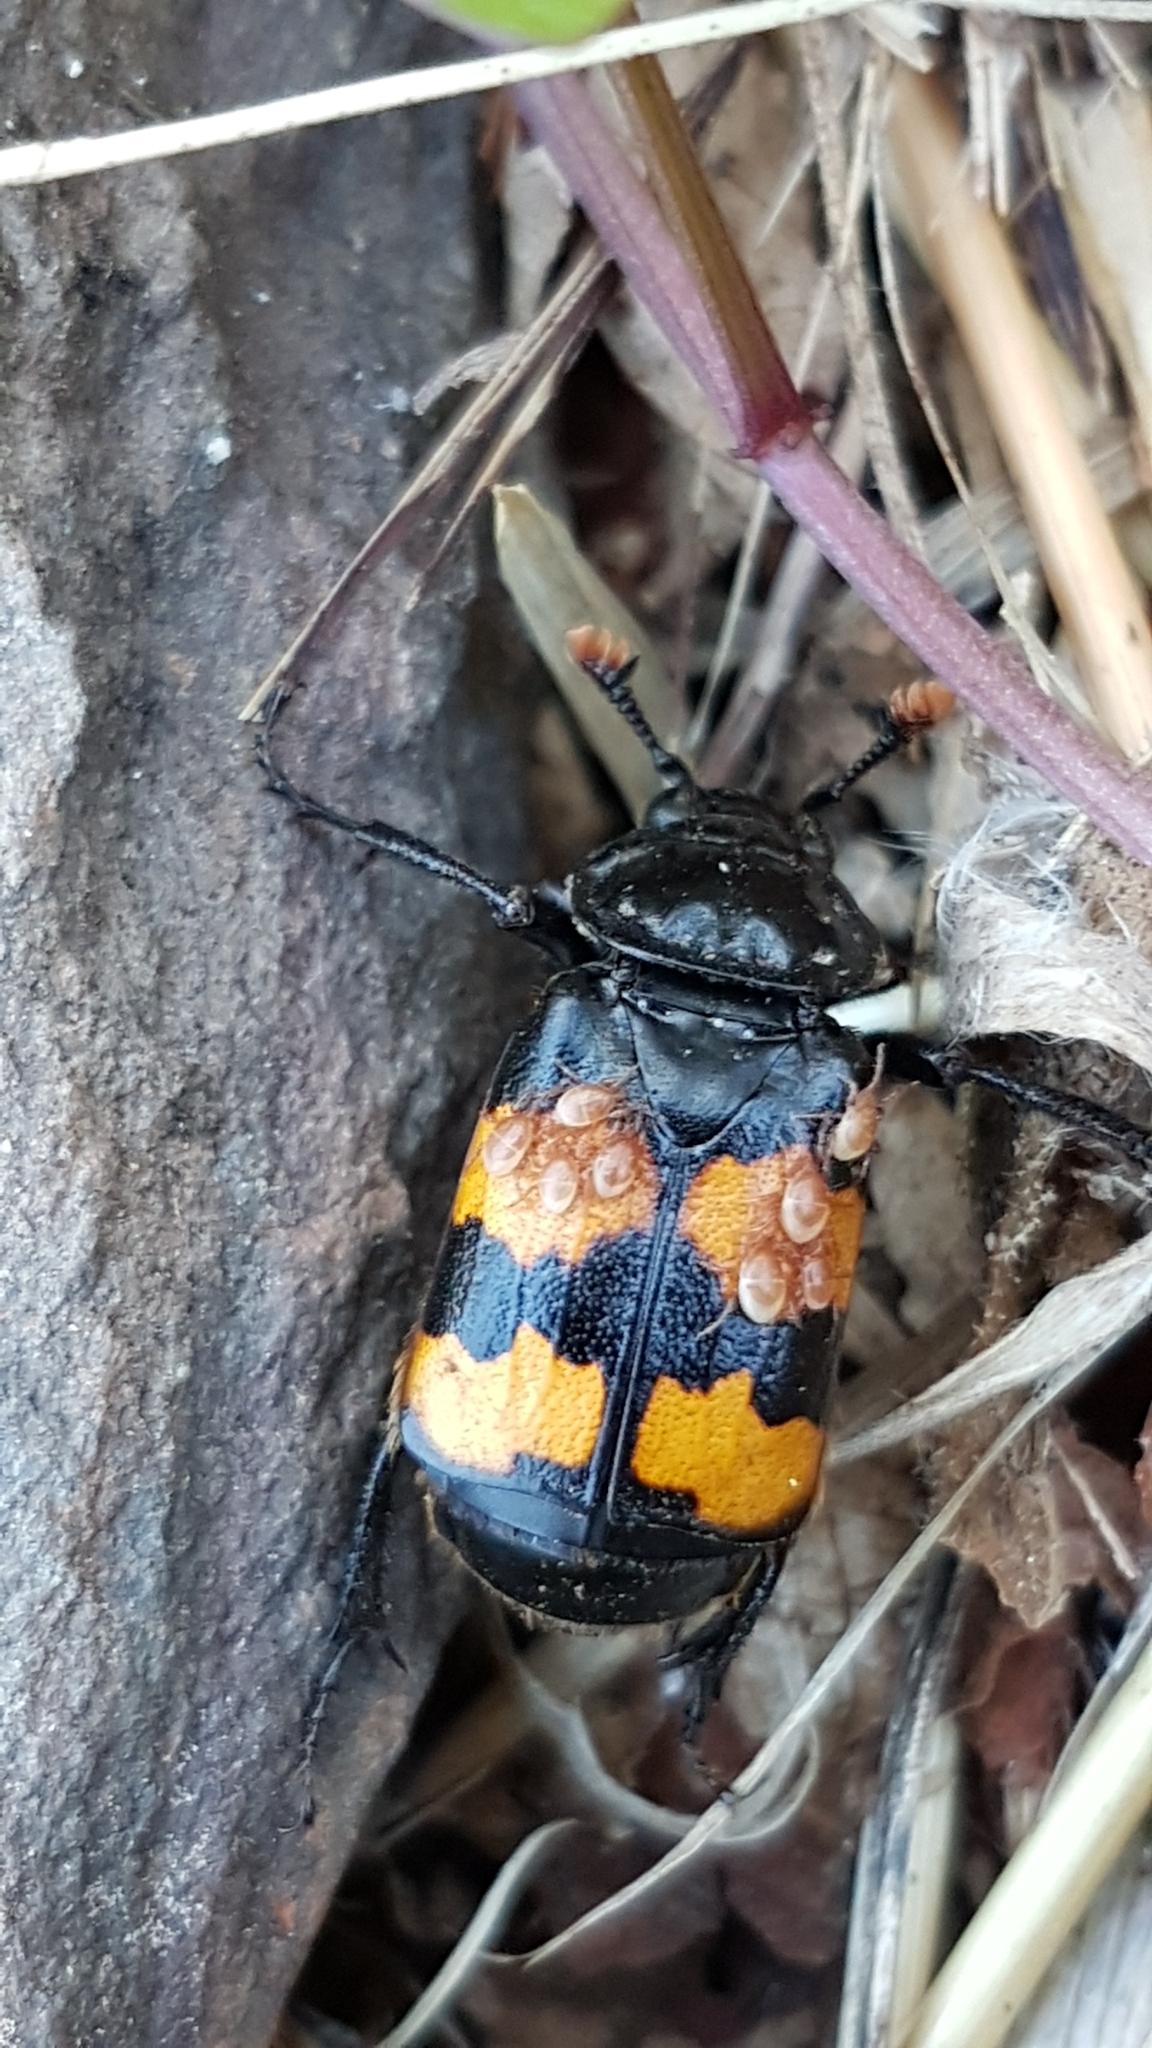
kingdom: Animalia
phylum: Arthropoda
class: Insecta
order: Coleoptera
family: Staphylinidae
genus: Nicrophorus
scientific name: Nicrophorus interruptus
